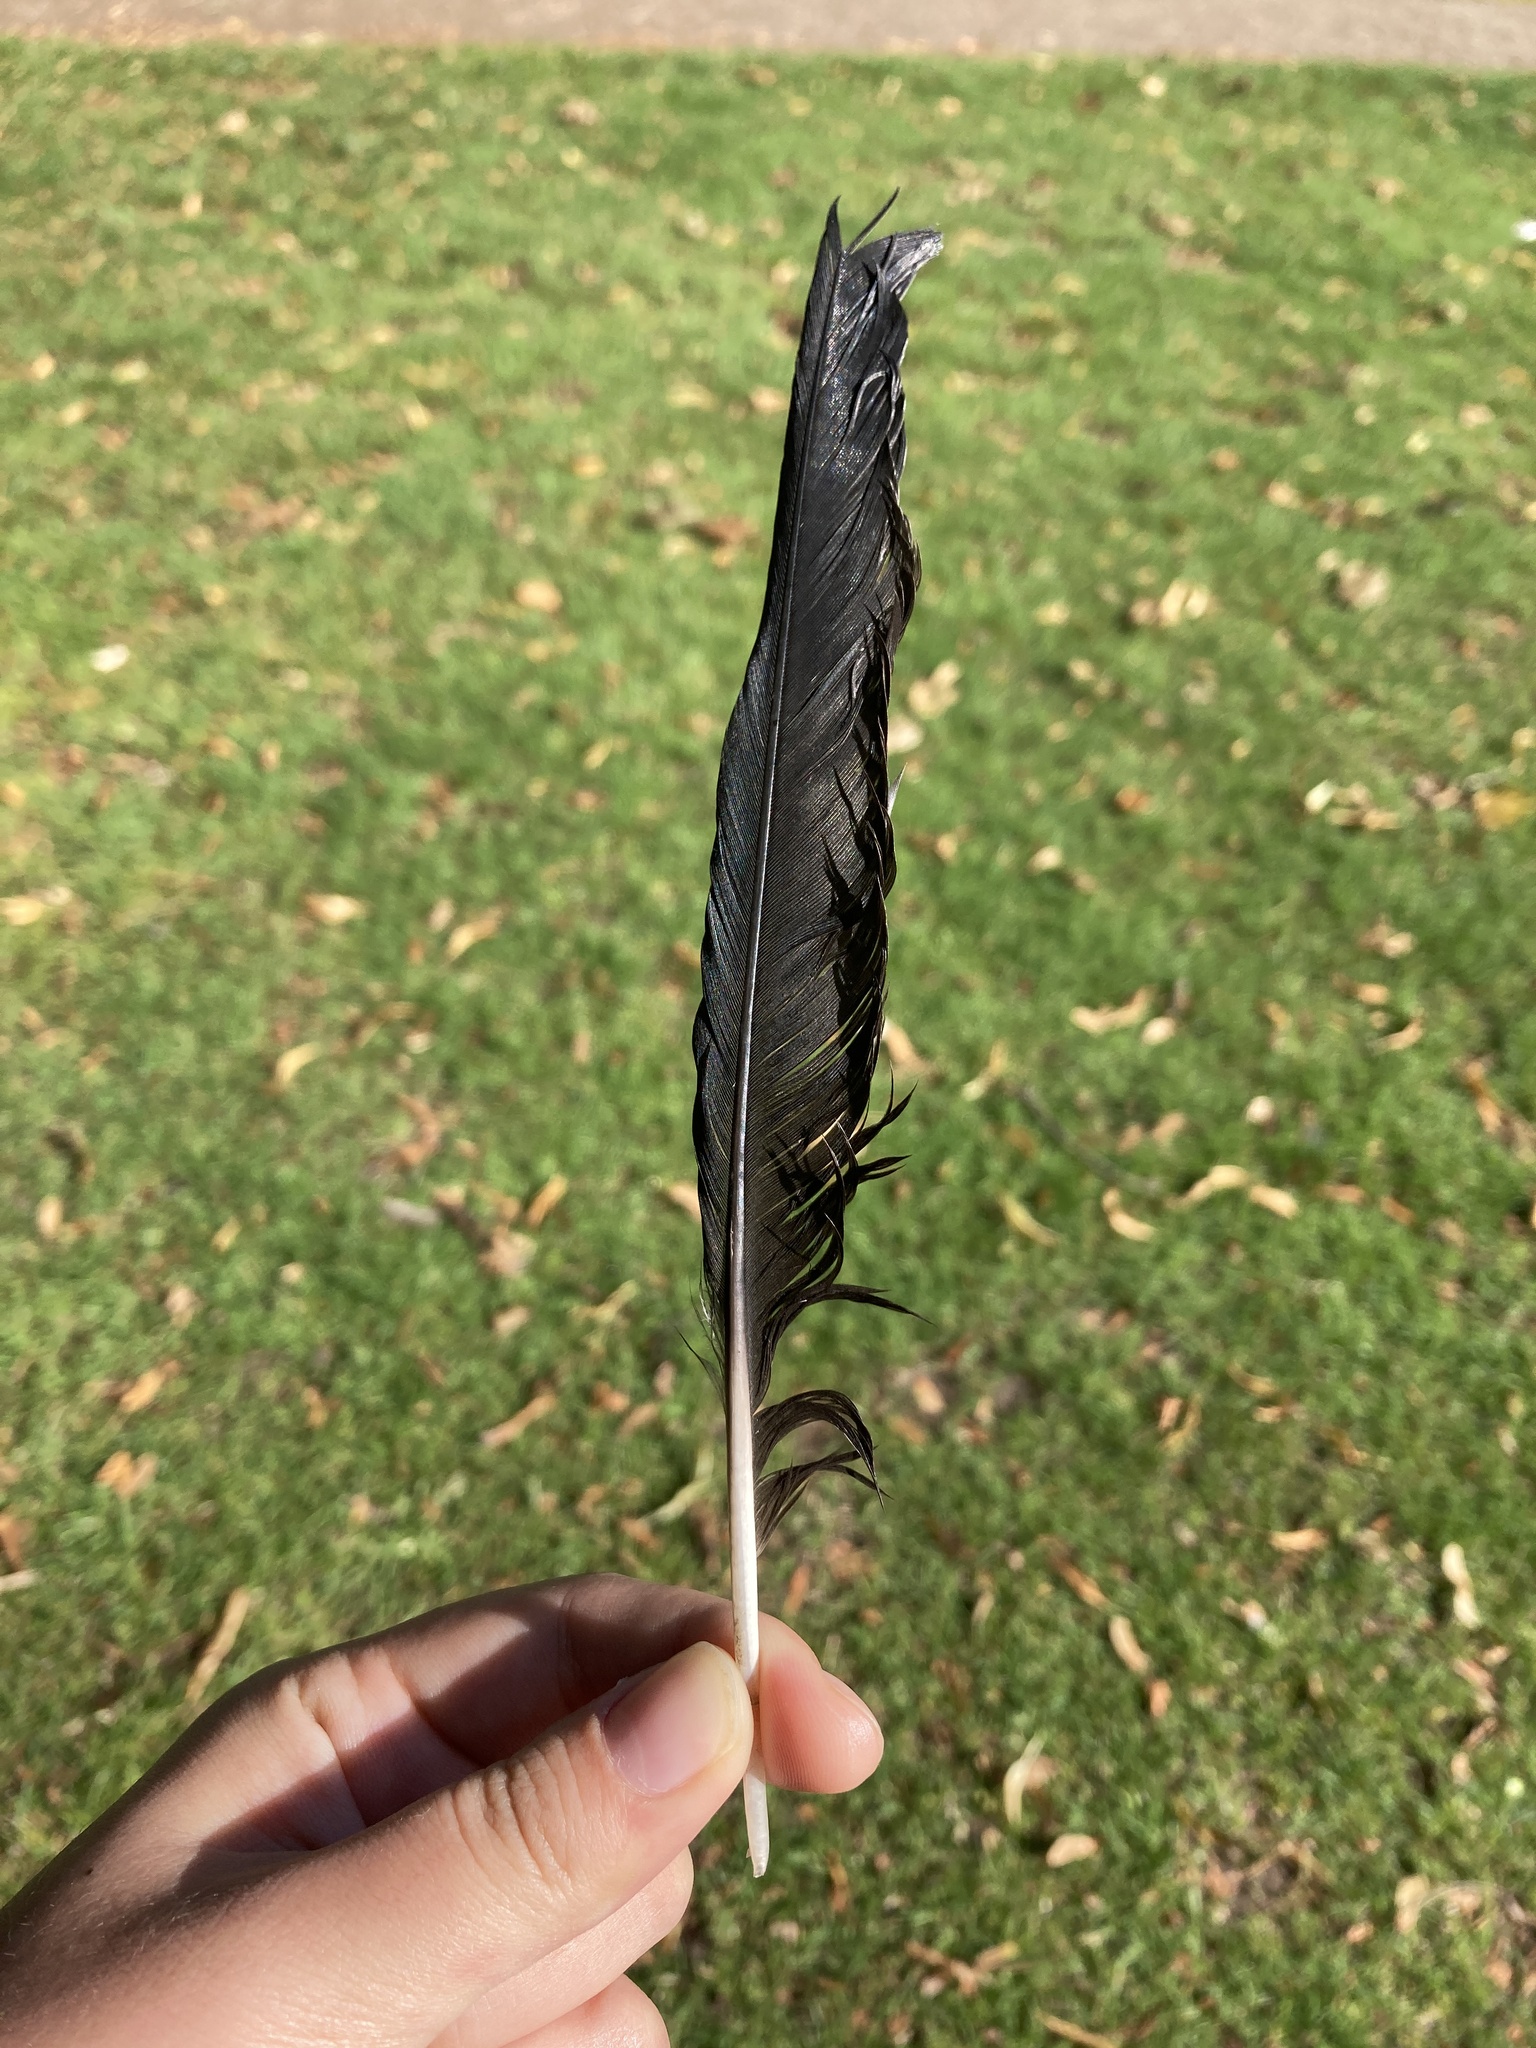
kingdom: Animalia
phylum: Chordata
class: Aves
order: Passeriformes
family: Corvidae
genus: Coloeus
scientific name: Coloeus monedula
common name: Western jackdaw
